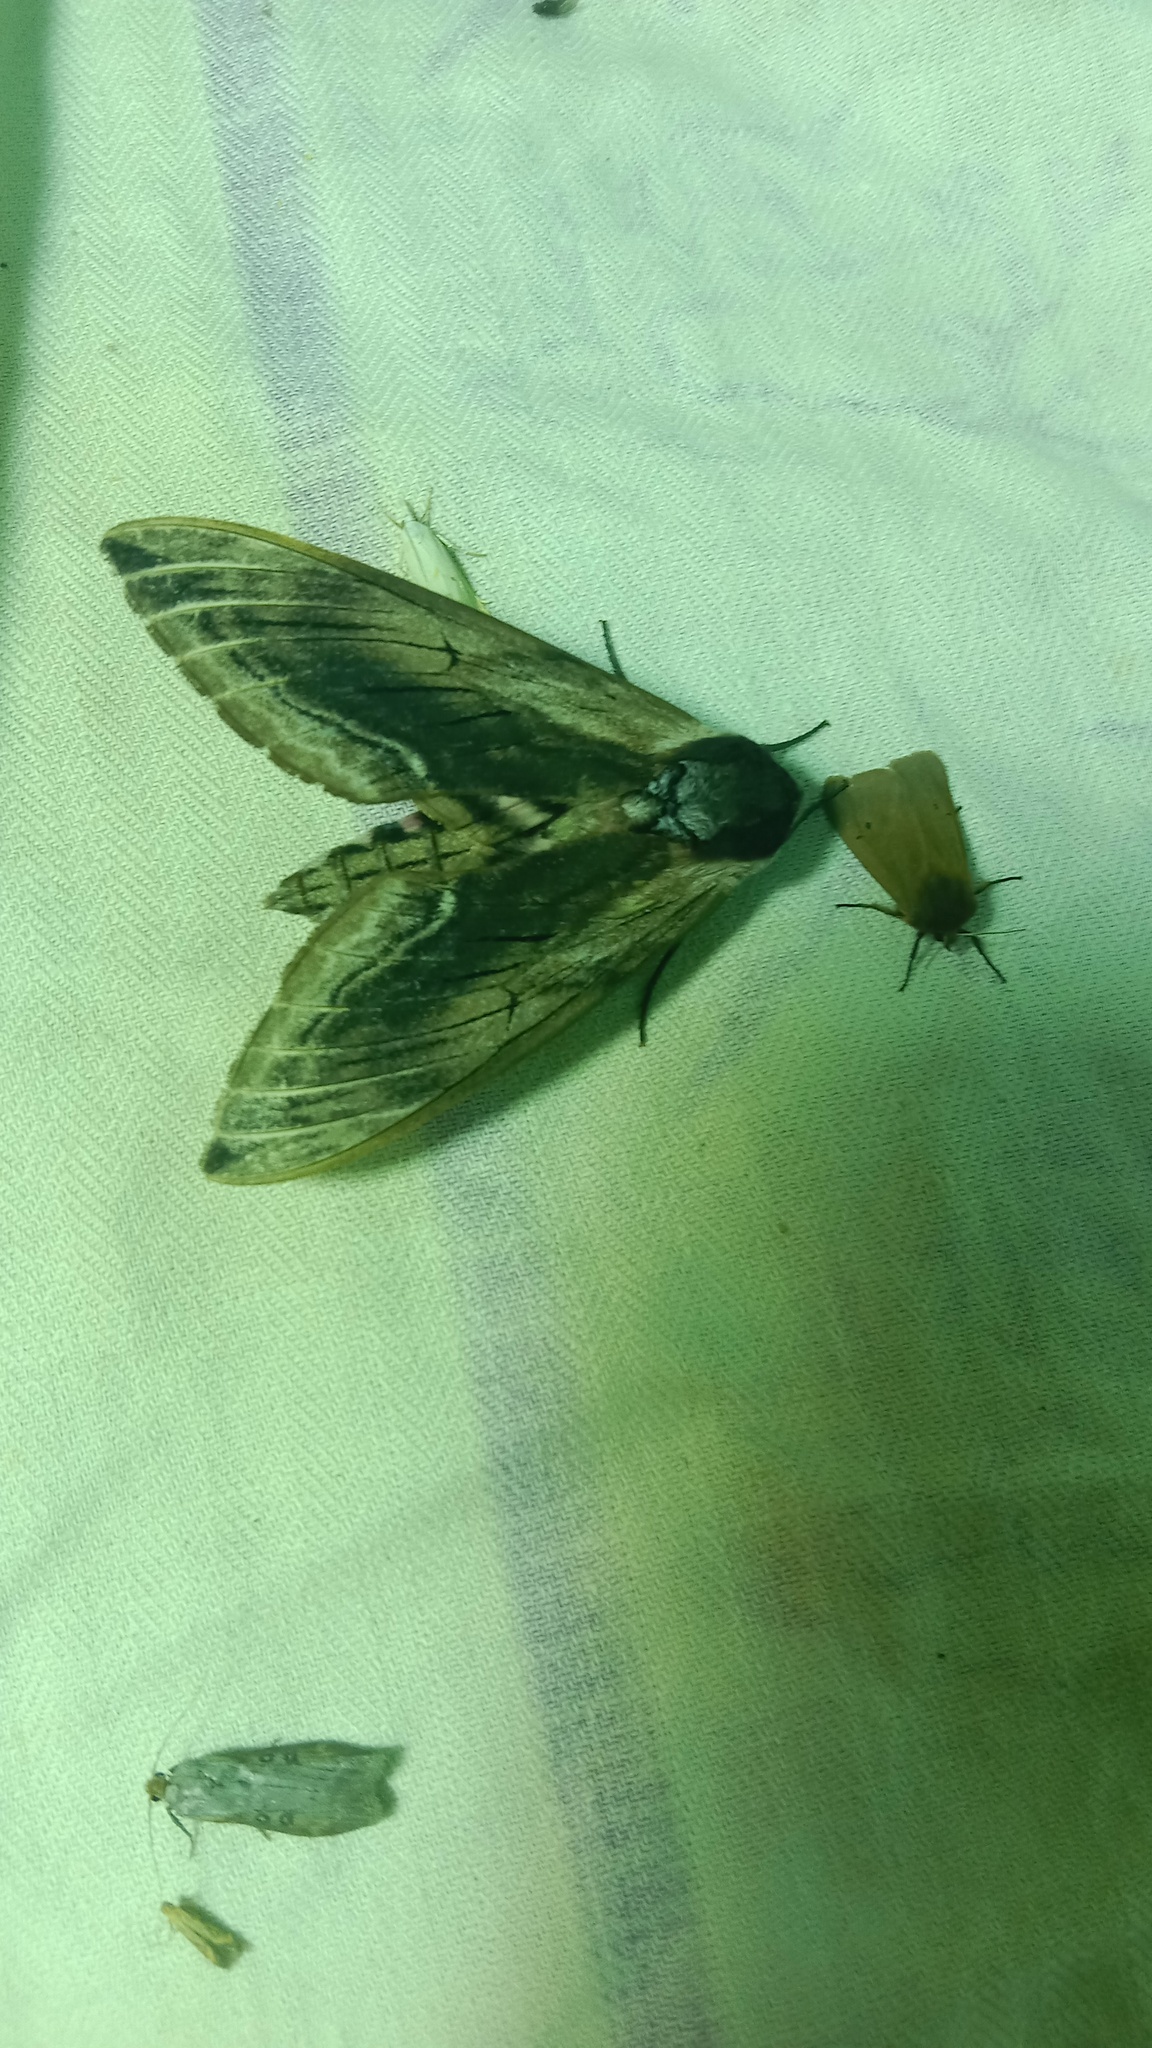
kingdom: Animalia
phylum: Arthropoda
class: Insecta
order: Lepidoptera
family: Sphingidae
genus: Sphinx
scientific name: Sphinx ligustri
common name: Privet hawk-moth
